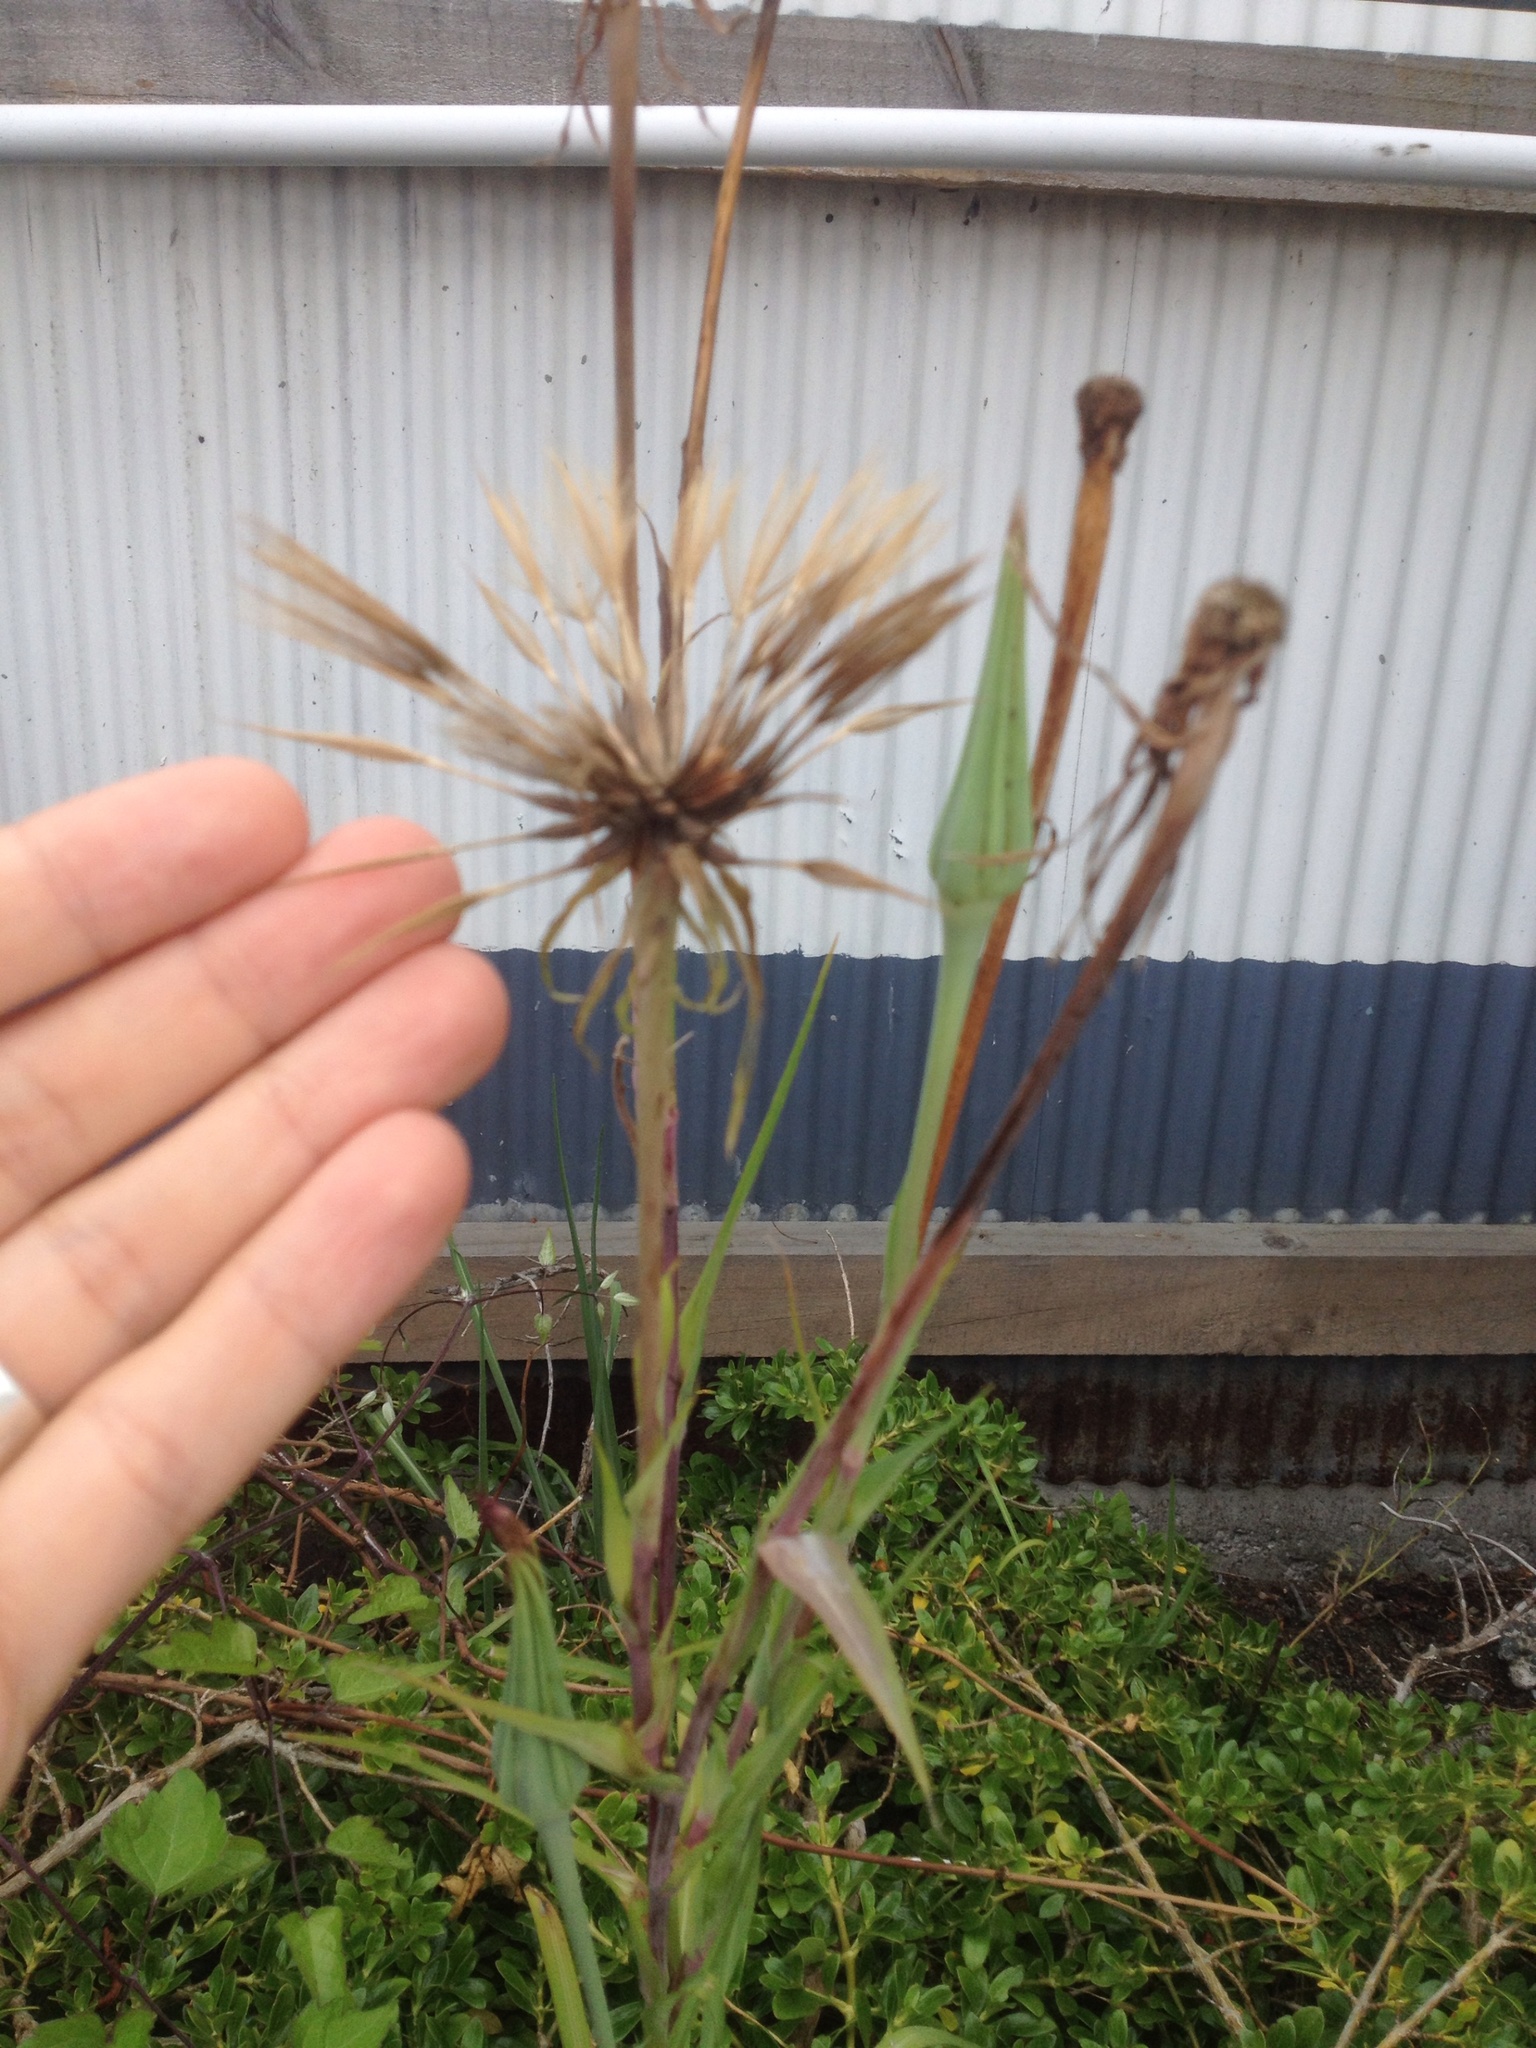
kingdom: Plantae
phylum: Tracheophyta
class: Magnoliopsida
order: Asterales
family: Asteraceae
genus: Tragopogon
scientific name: Tragopogon porrifolius
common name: Salsify
